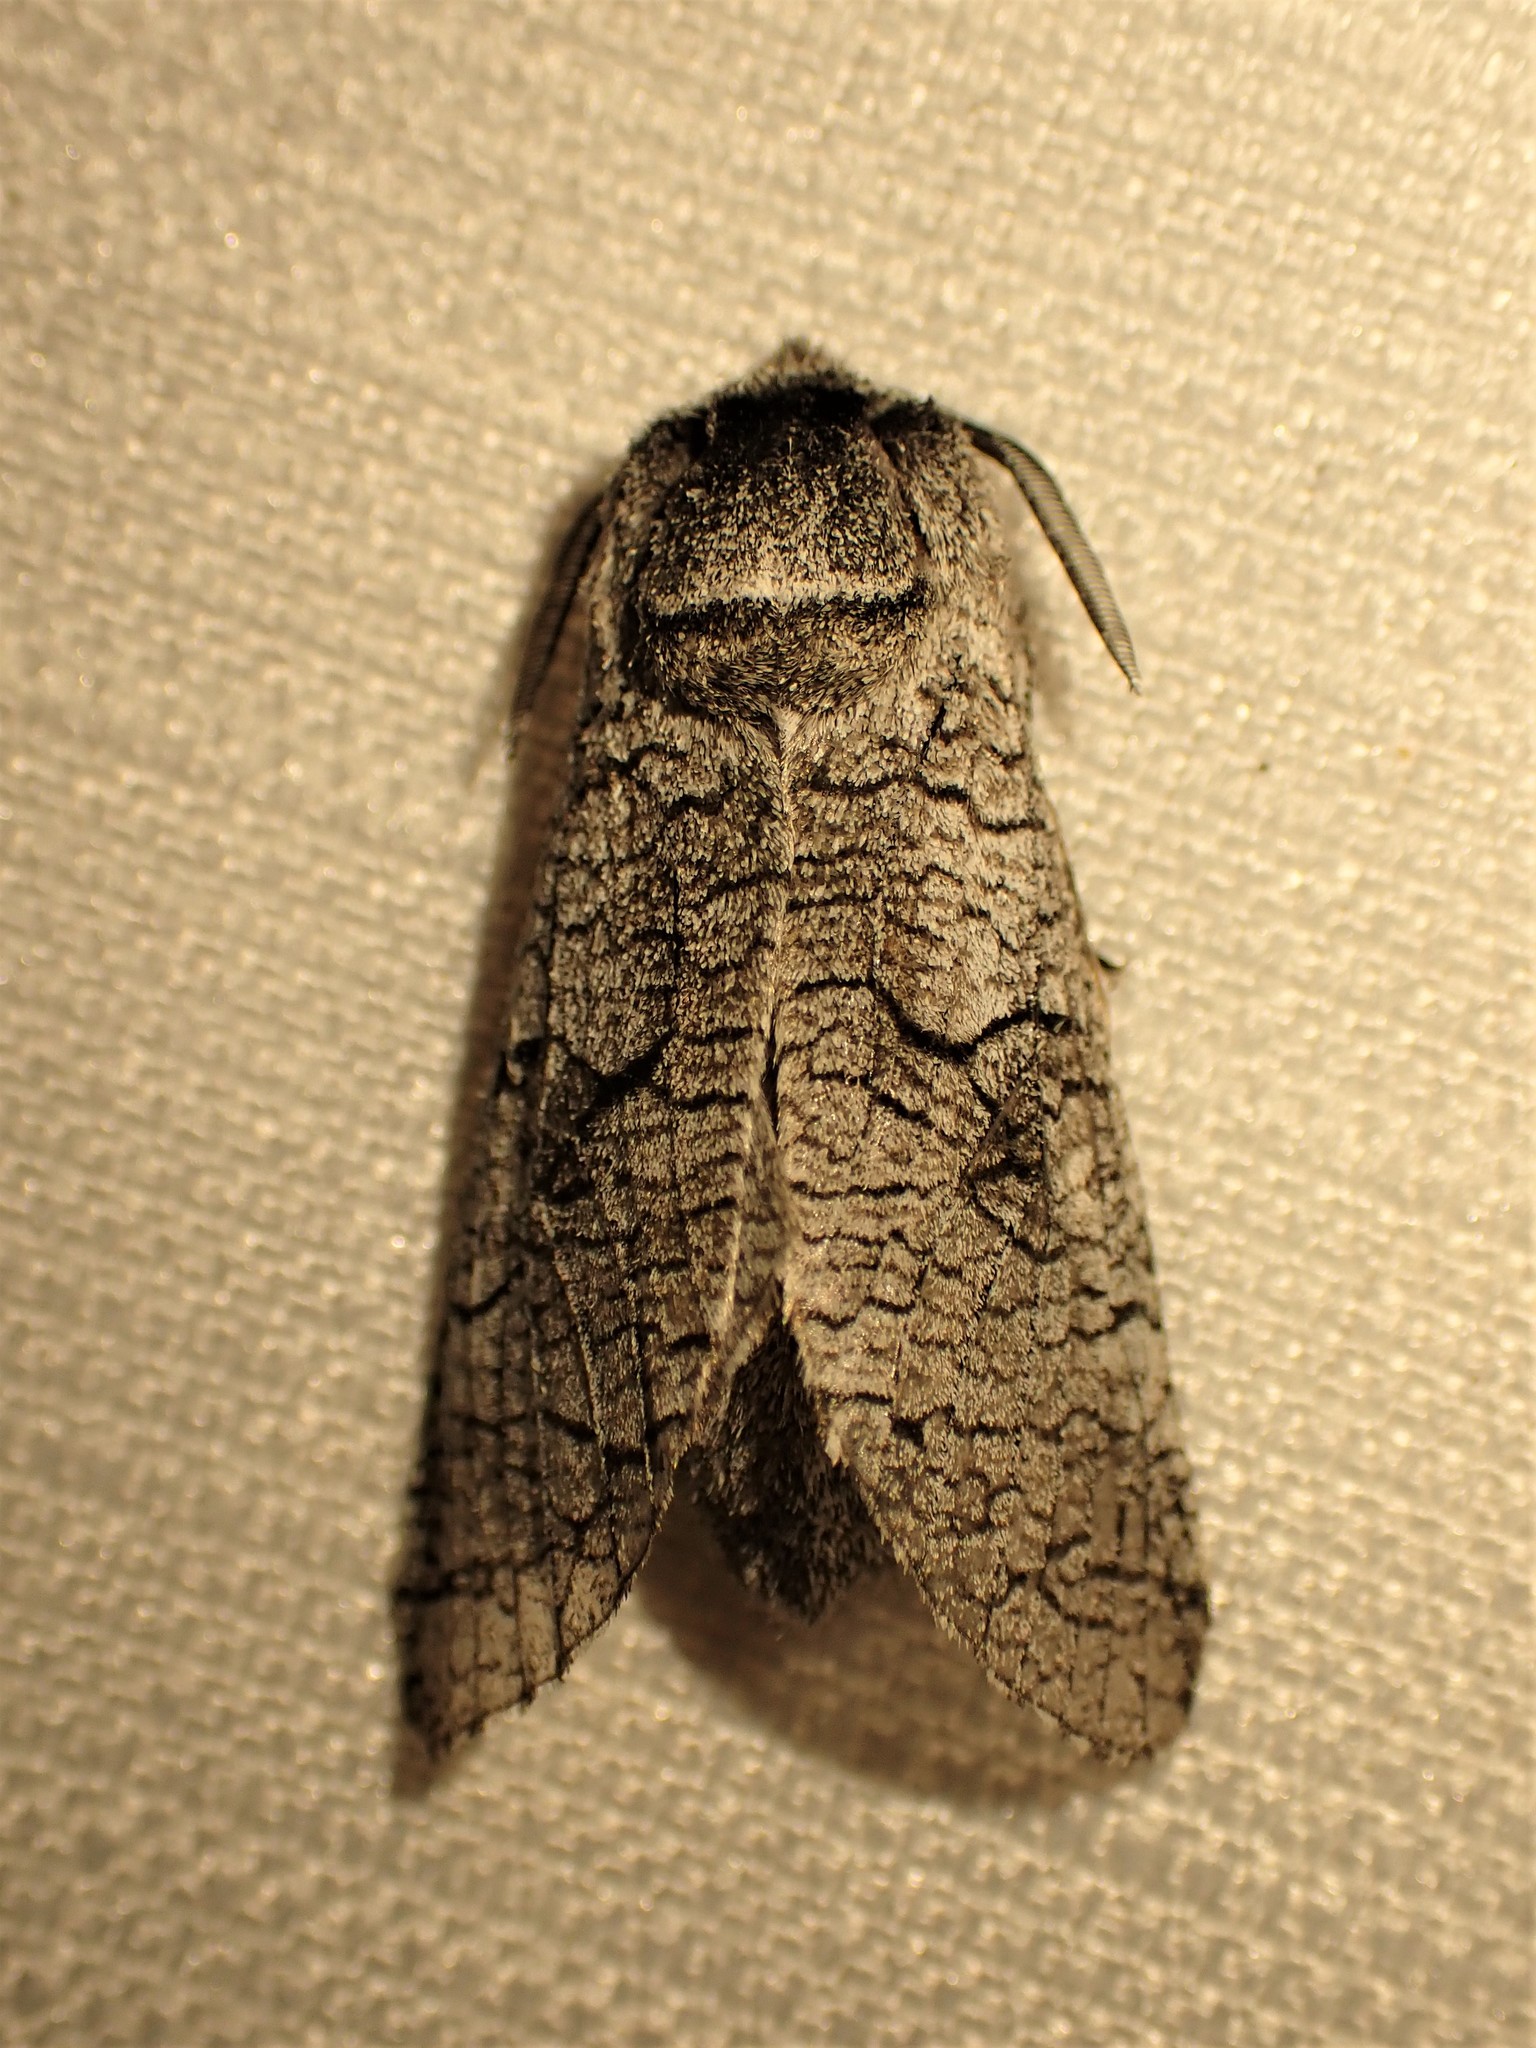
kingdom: Animalia
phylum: Arthropoda
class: Insecta
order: Lepidoptera
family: Cossidae
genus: Acossus
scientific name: Acossus populi
